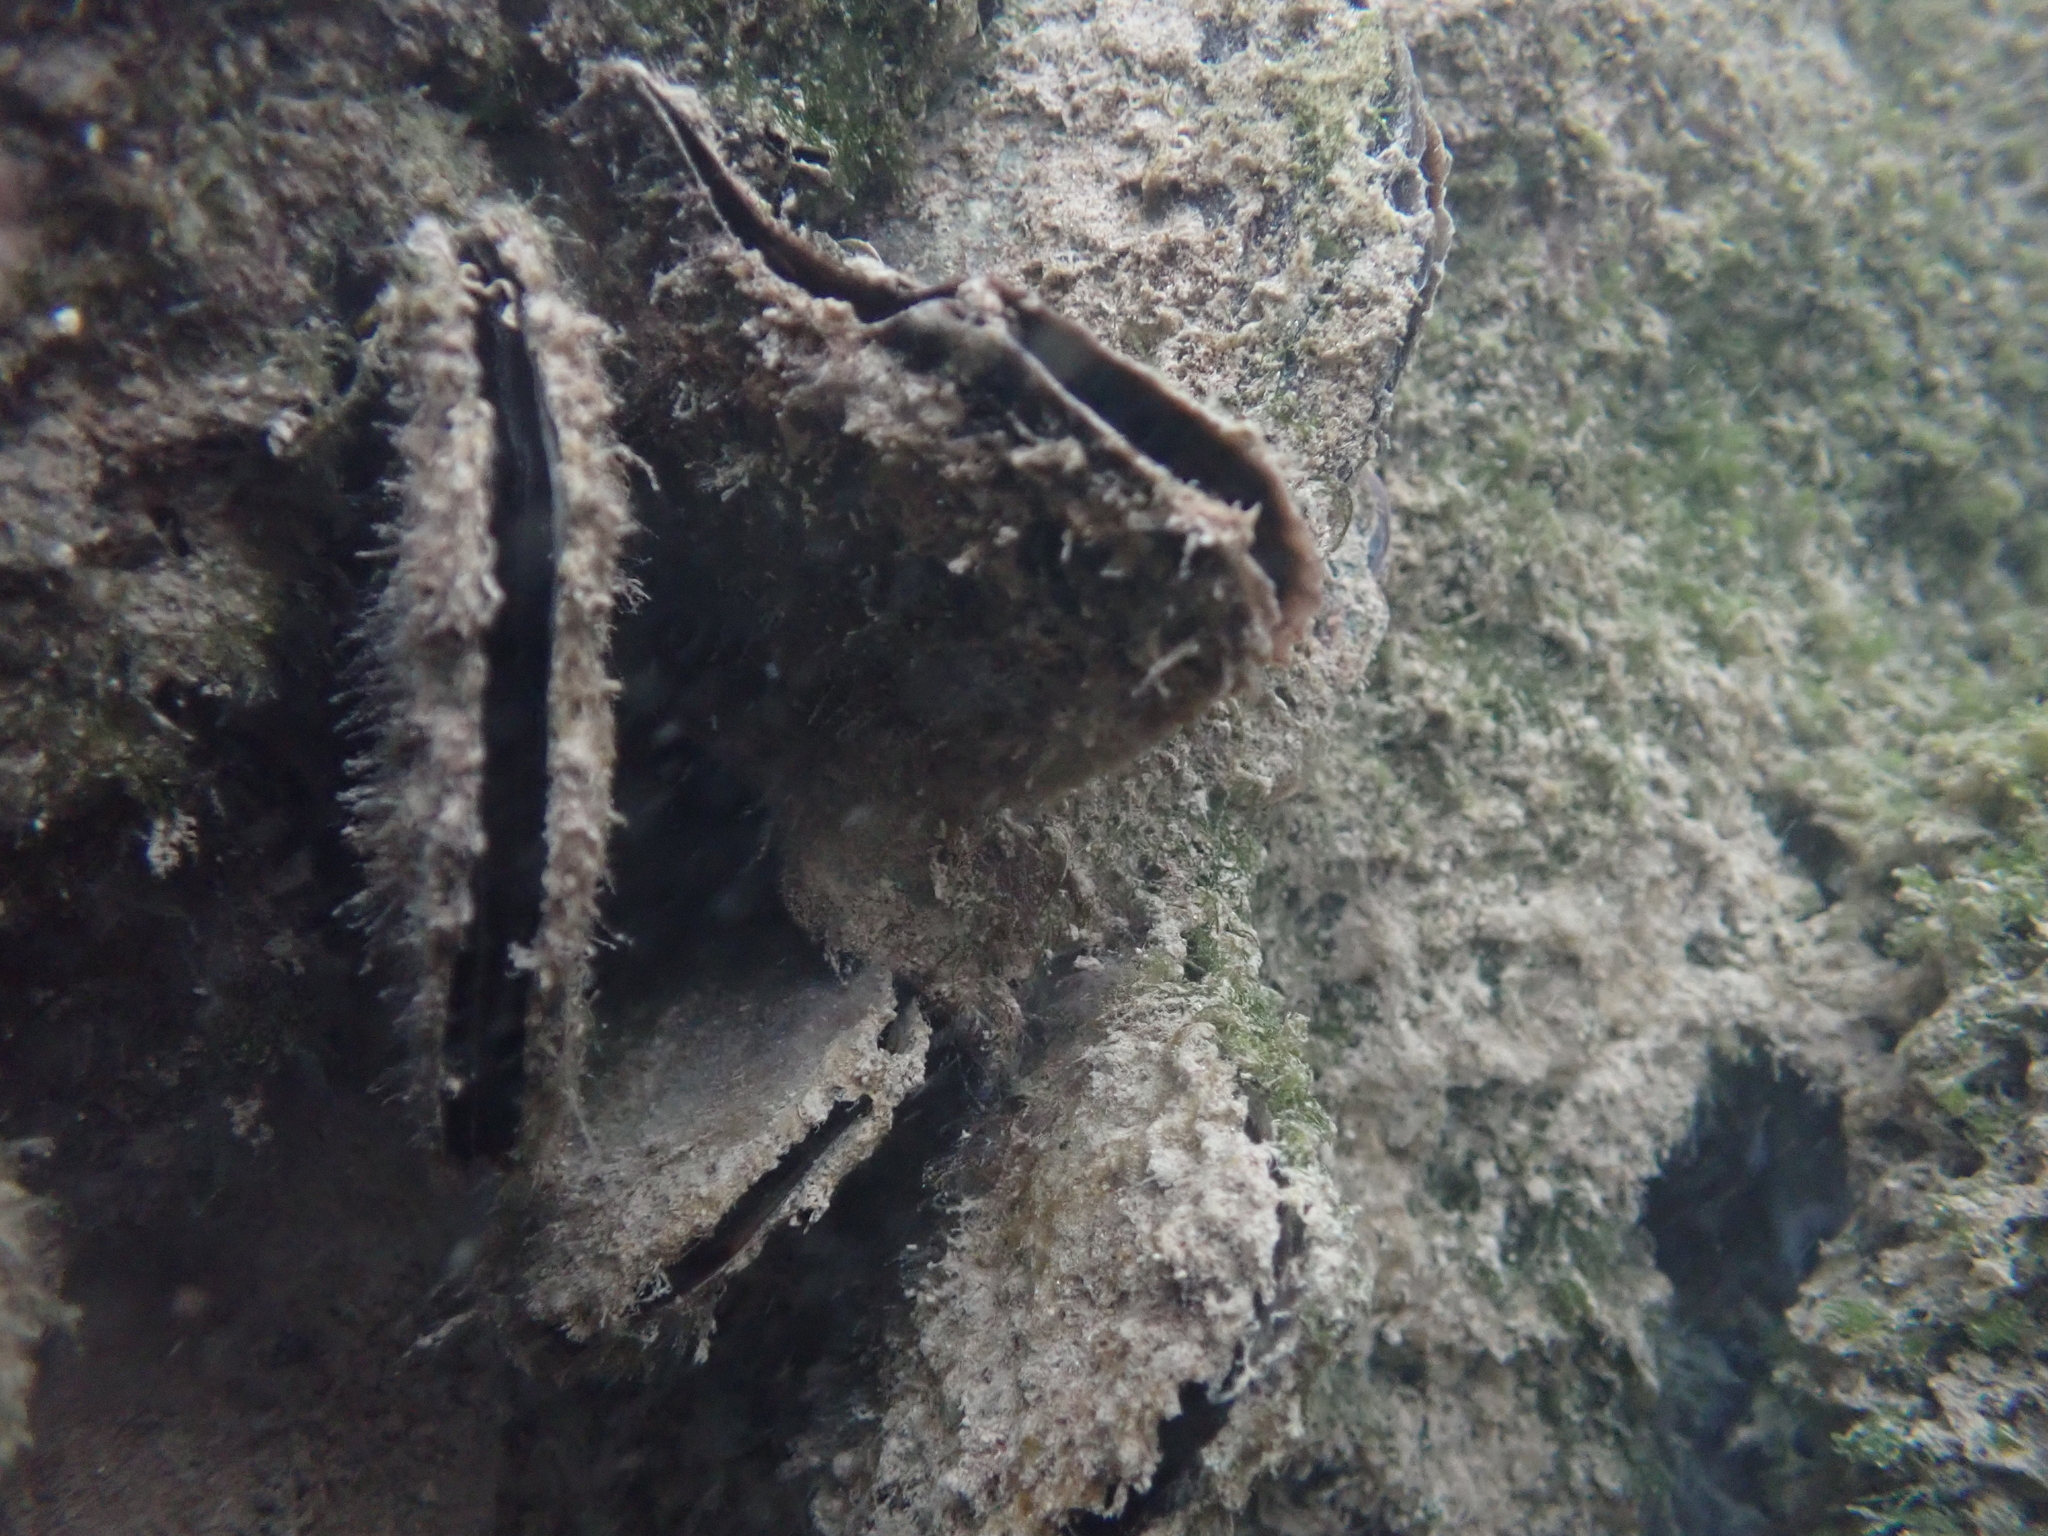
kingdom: Animalia
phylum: Mollusca
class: Bivalvia
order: Ostreida
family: Isognomonidae
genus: Isognomon
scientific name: Isognomon alatus
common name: Flat tree-oyster
